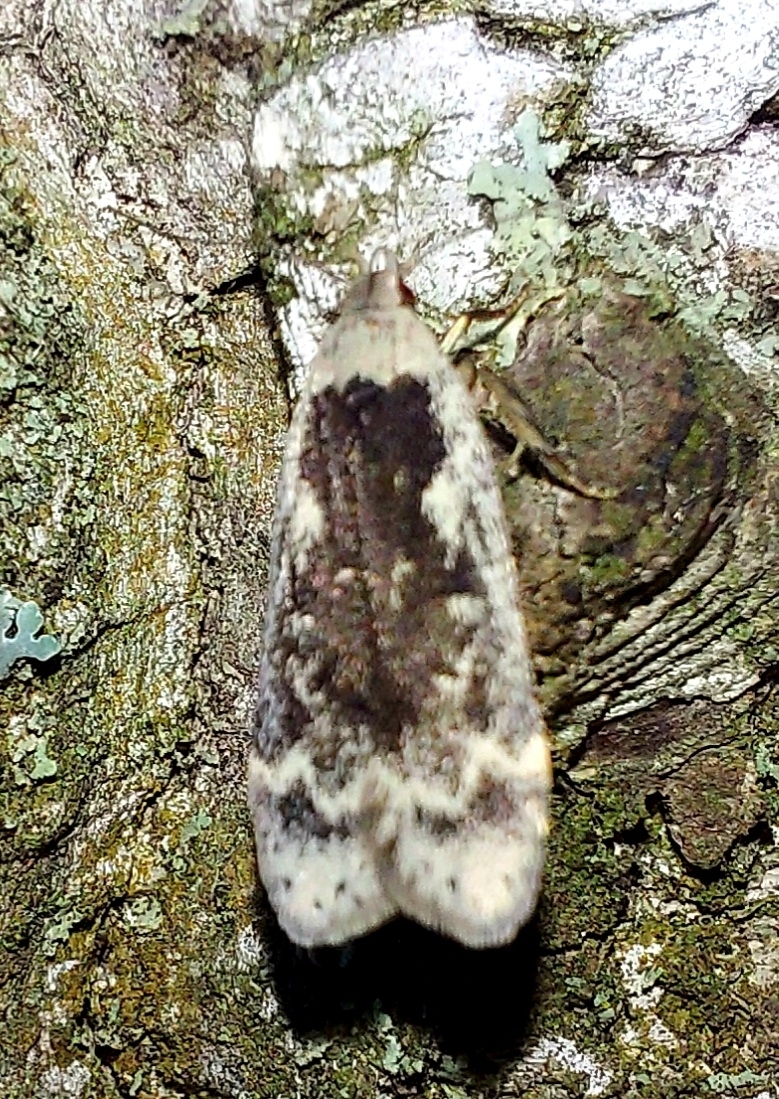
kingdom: Animalia
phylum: Arthropoda
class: Insecta
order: Lepidoptera
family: Gelechiidae
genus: Anacampsis
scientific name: Anacampsis blattariella
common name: Birch sober
